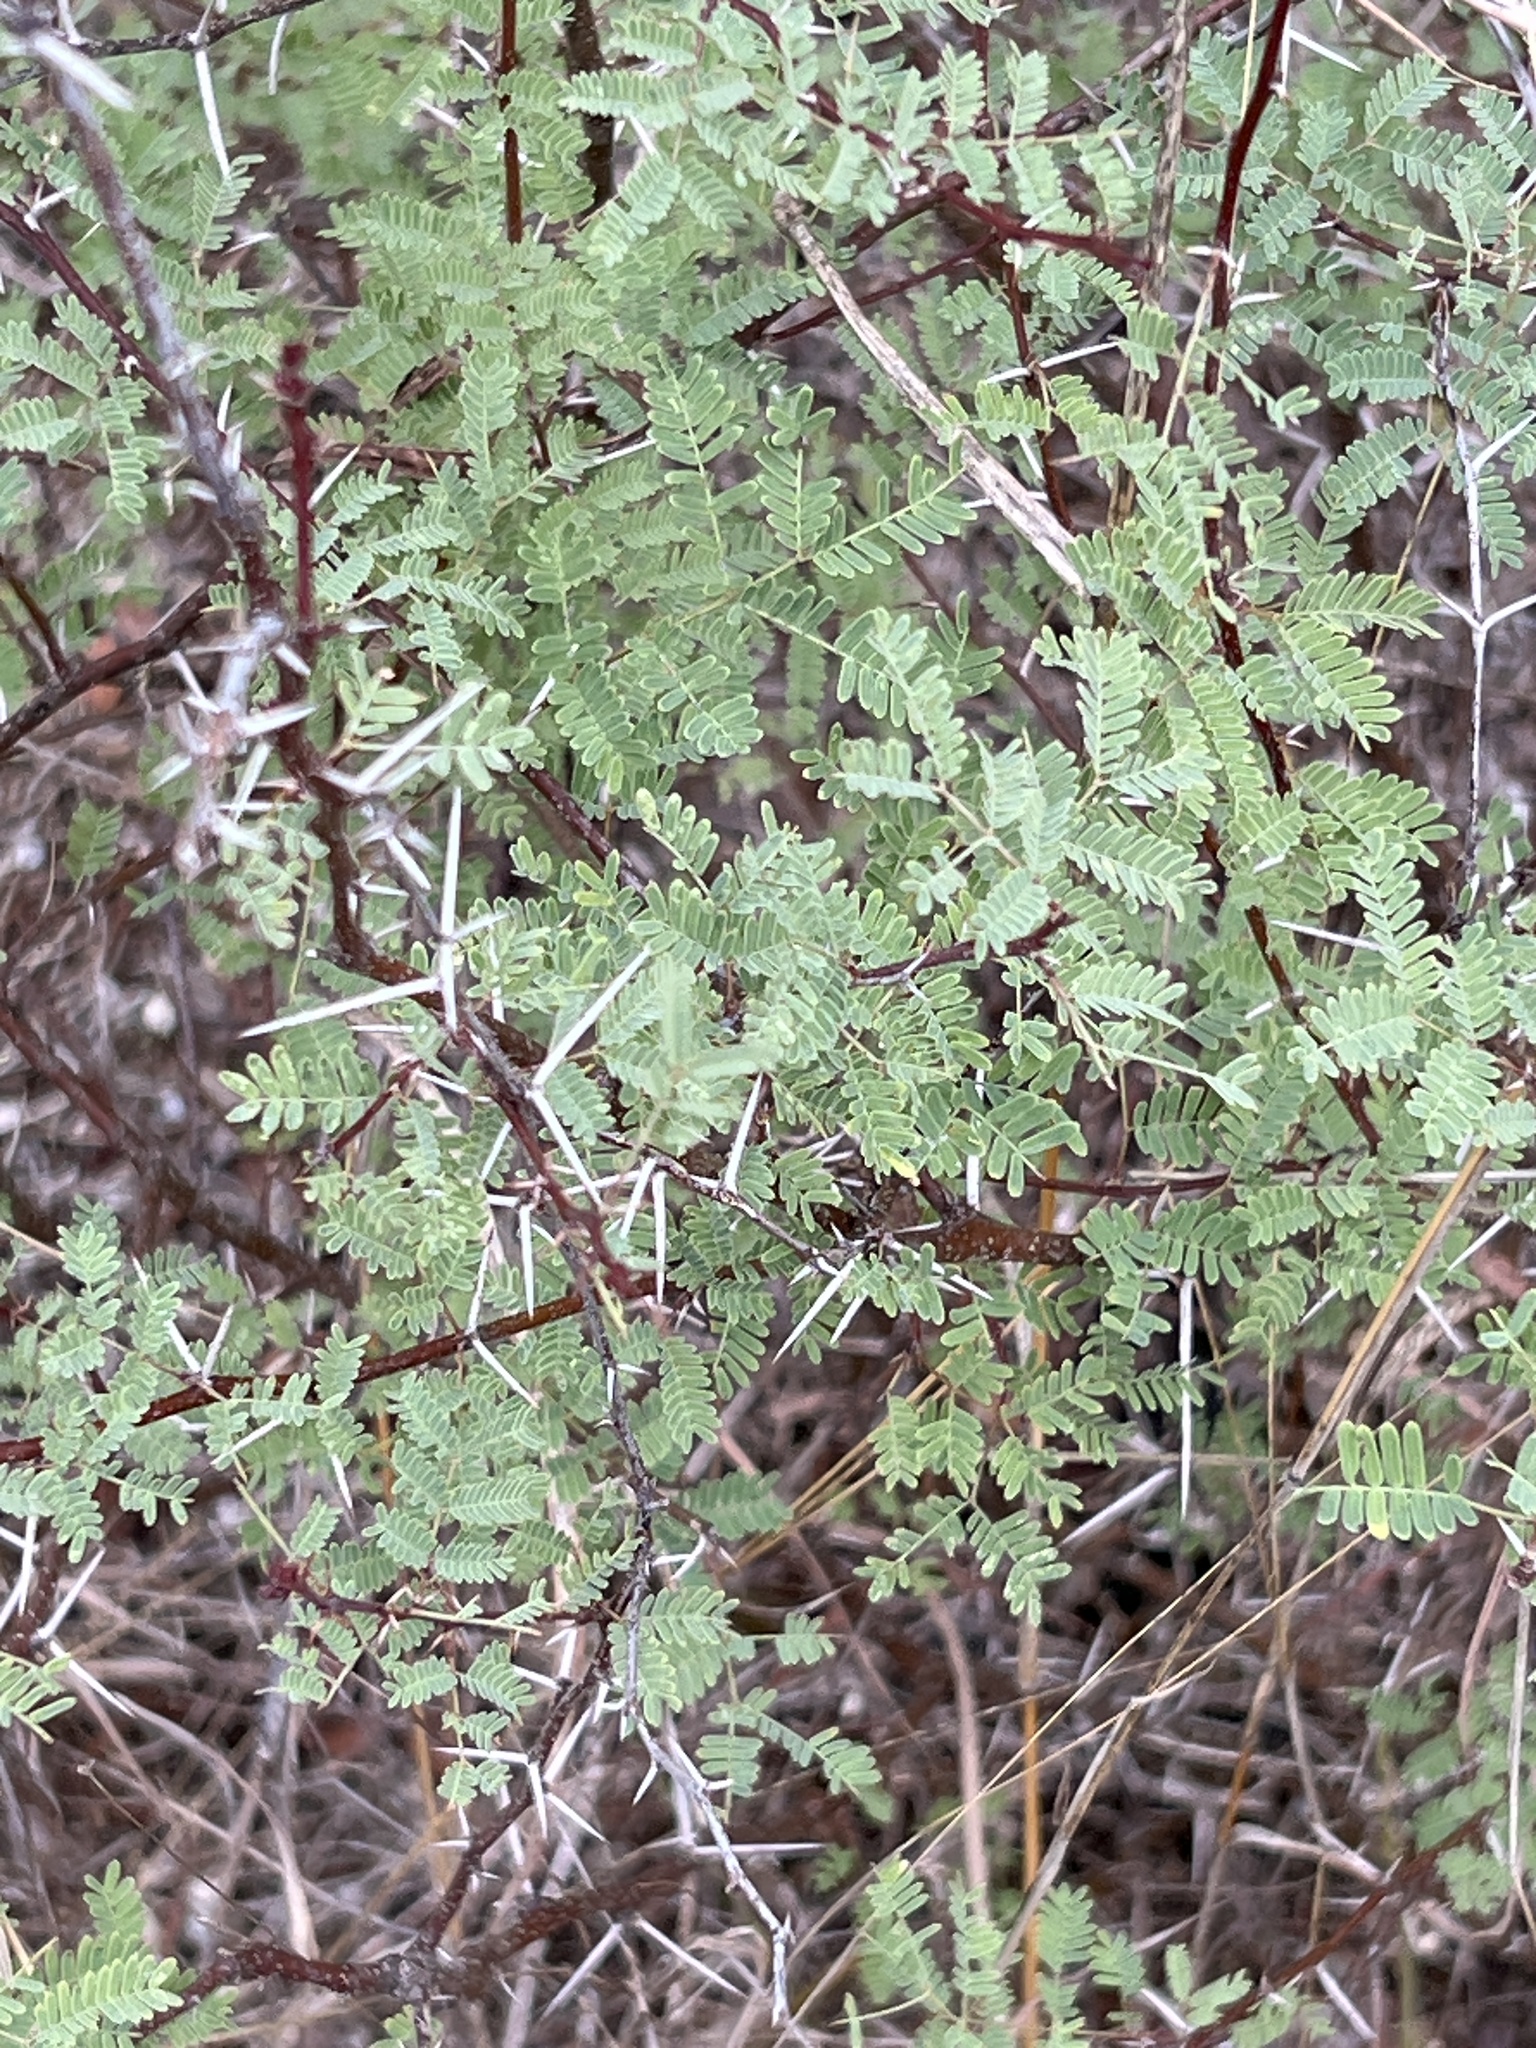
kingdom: Plantae
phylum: Tracheophyta
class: Magnoliopsida
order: Fabales
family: Fabaceae
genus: Vachellia
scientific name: Vachellia farnesiana
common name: Sweet acacia
